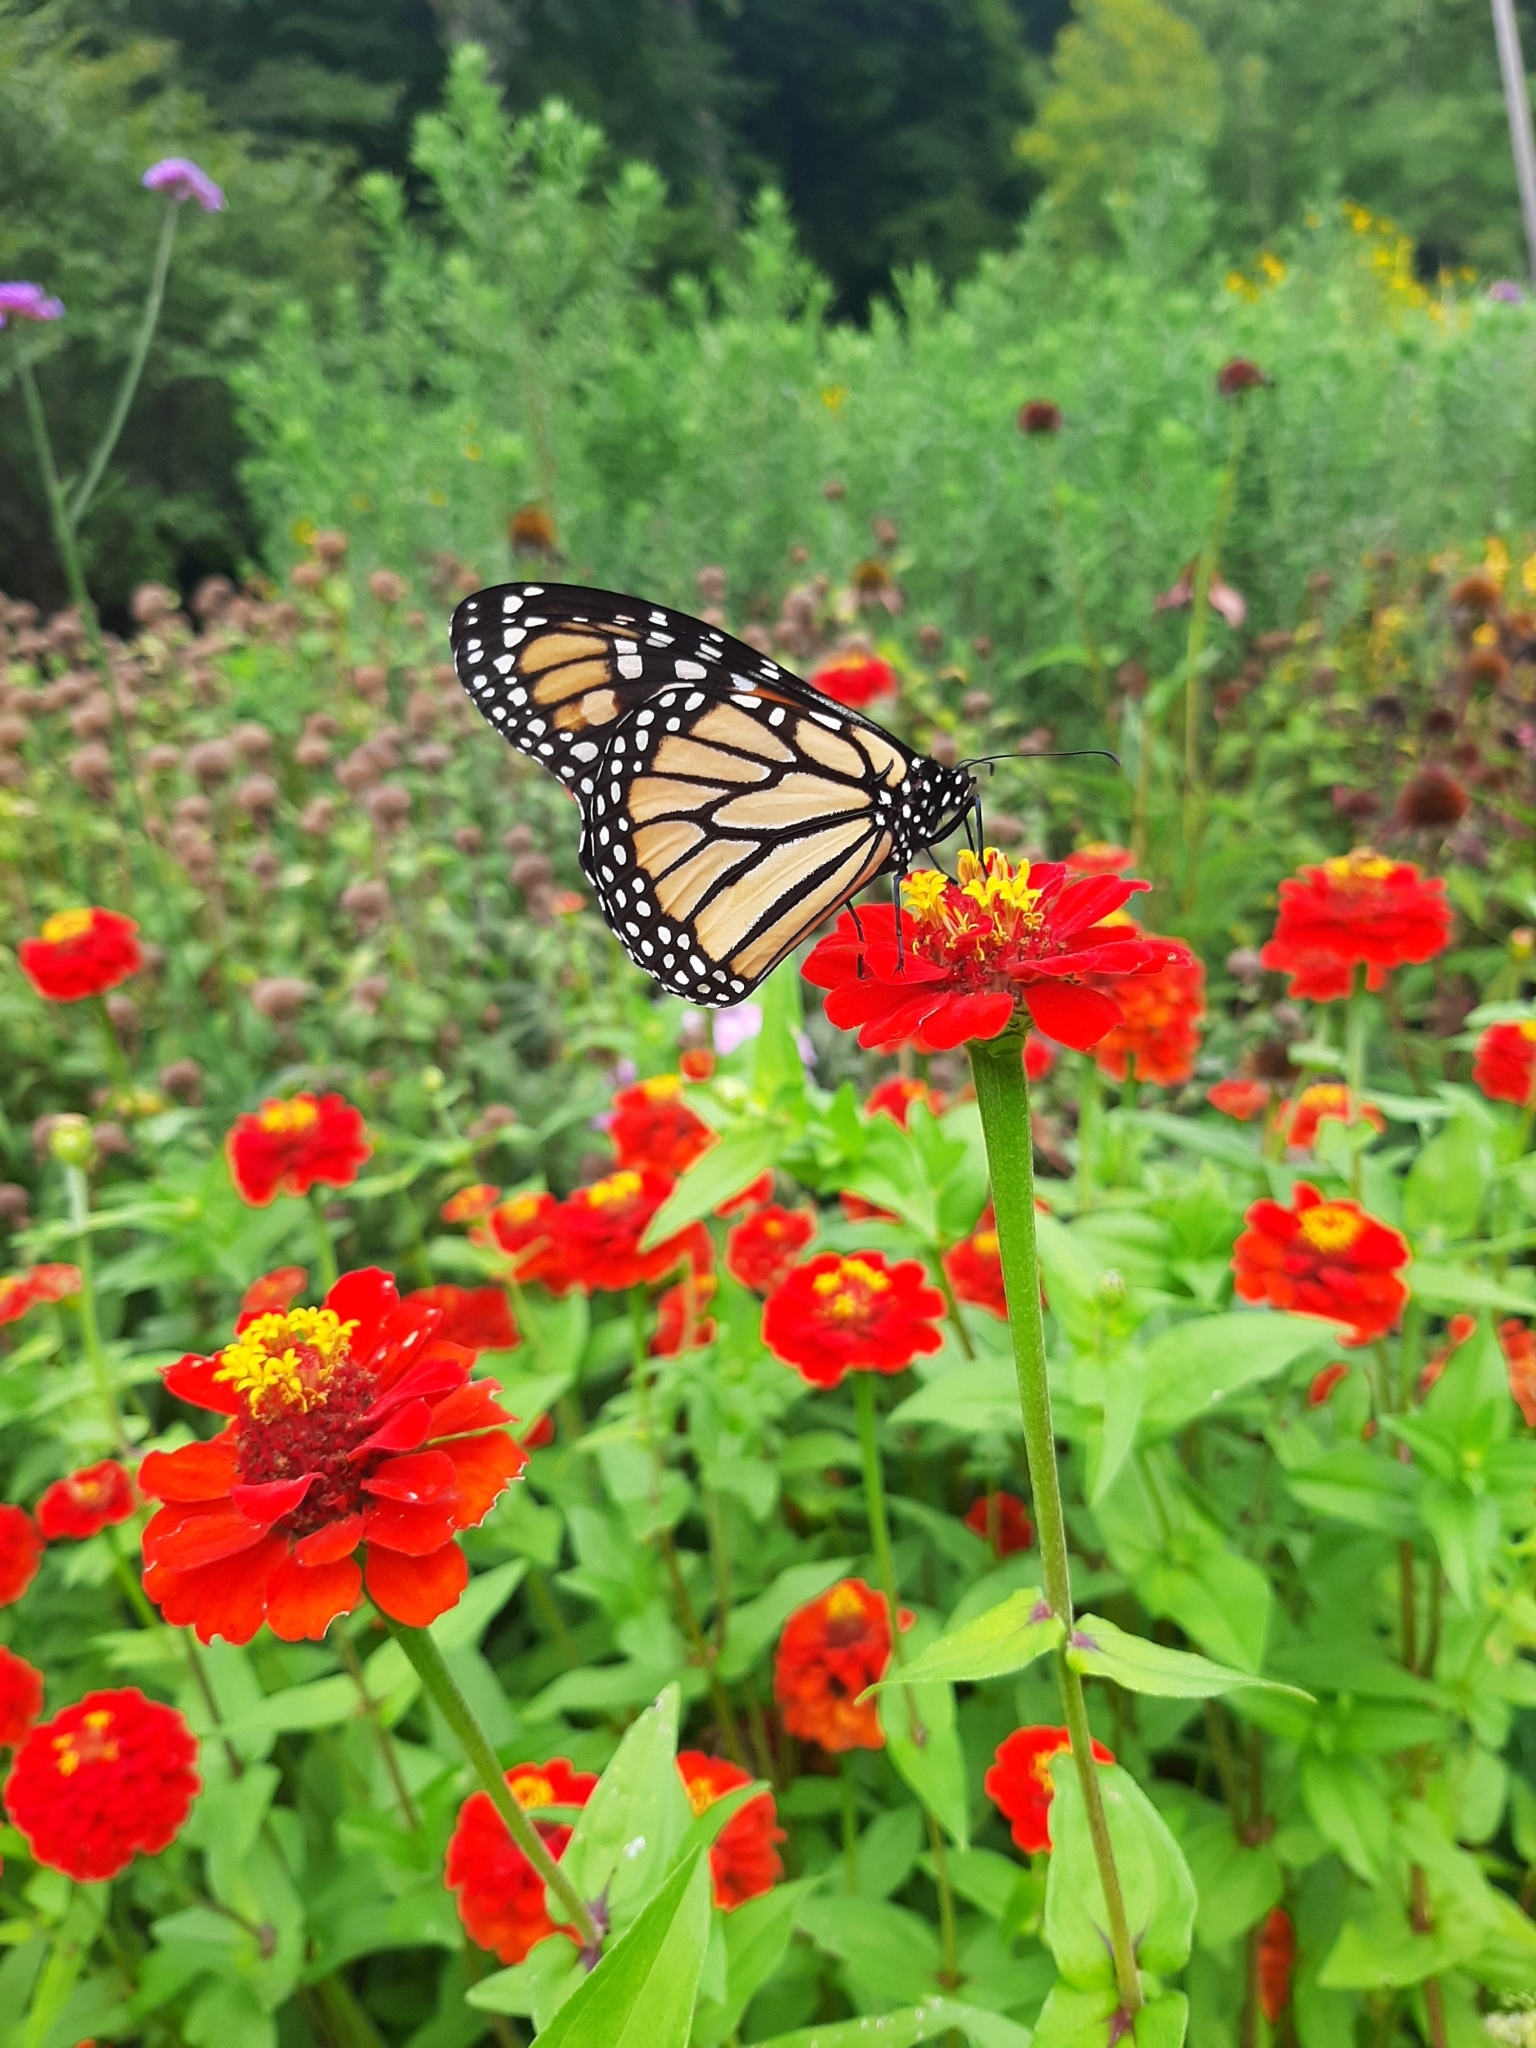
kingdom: Animalia
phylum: Arthropoda
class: Insecta
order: Lepidoptera
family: Nymphalidae
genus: Danaus
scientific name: Danaus plexippus
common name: Monarch
